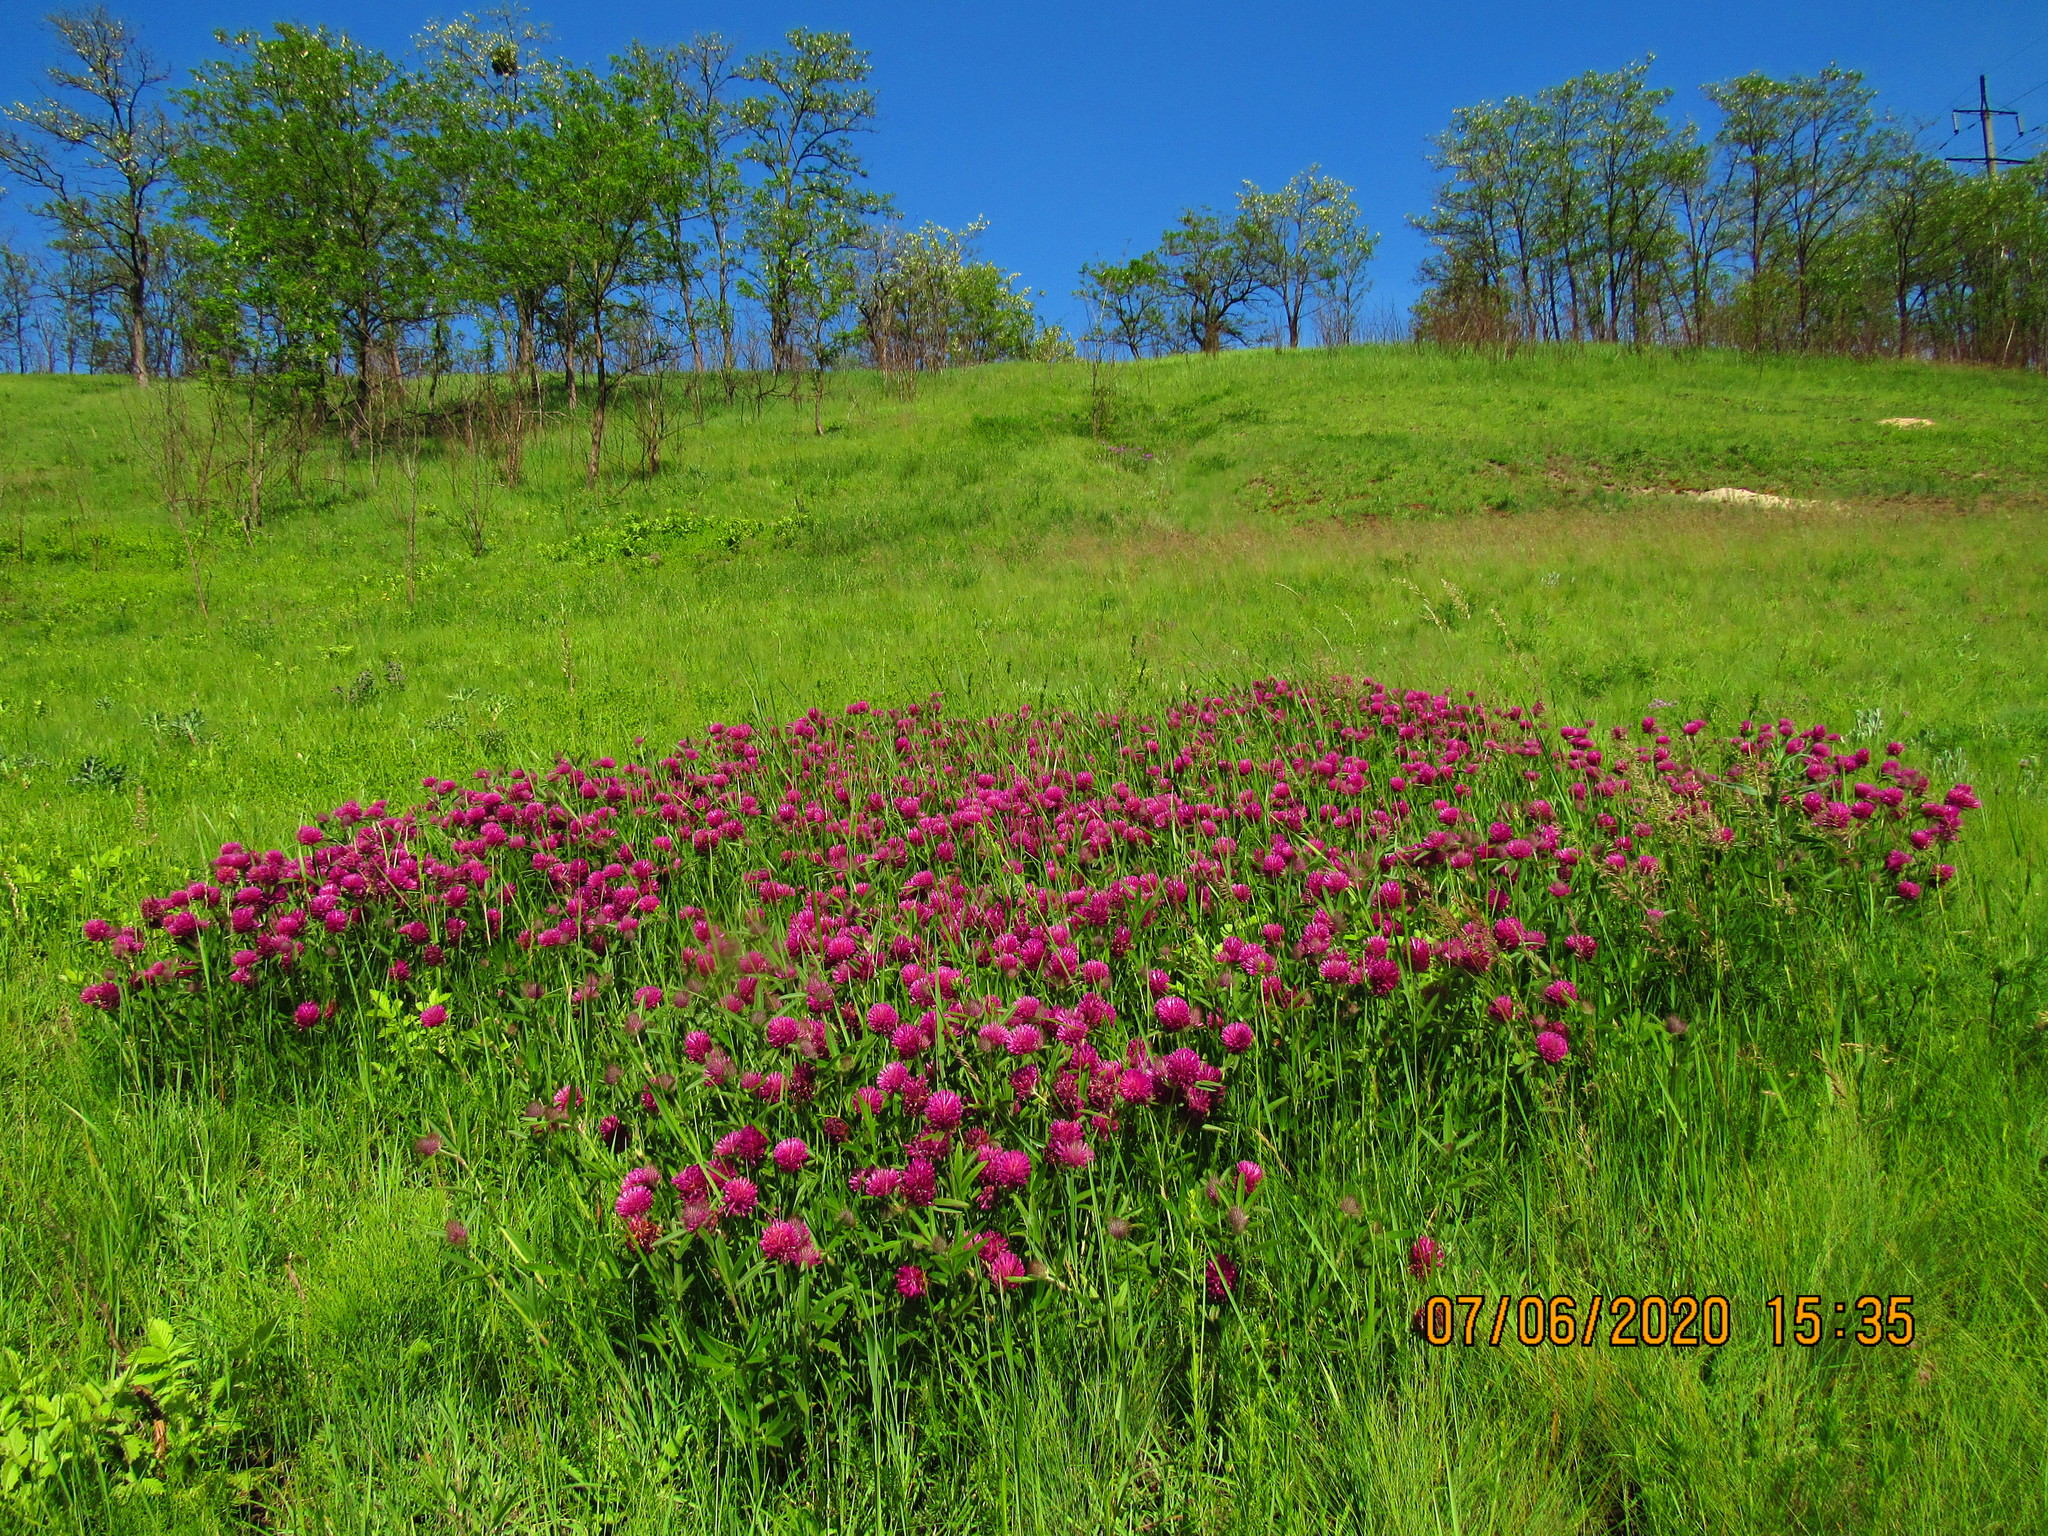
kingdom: Plantae
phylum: Tracheophyta
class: Magnoliopsida
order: Fabales
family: Fabaceae
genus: Trifolium
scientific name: Trifolium alpestre
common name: Owl-head clover
